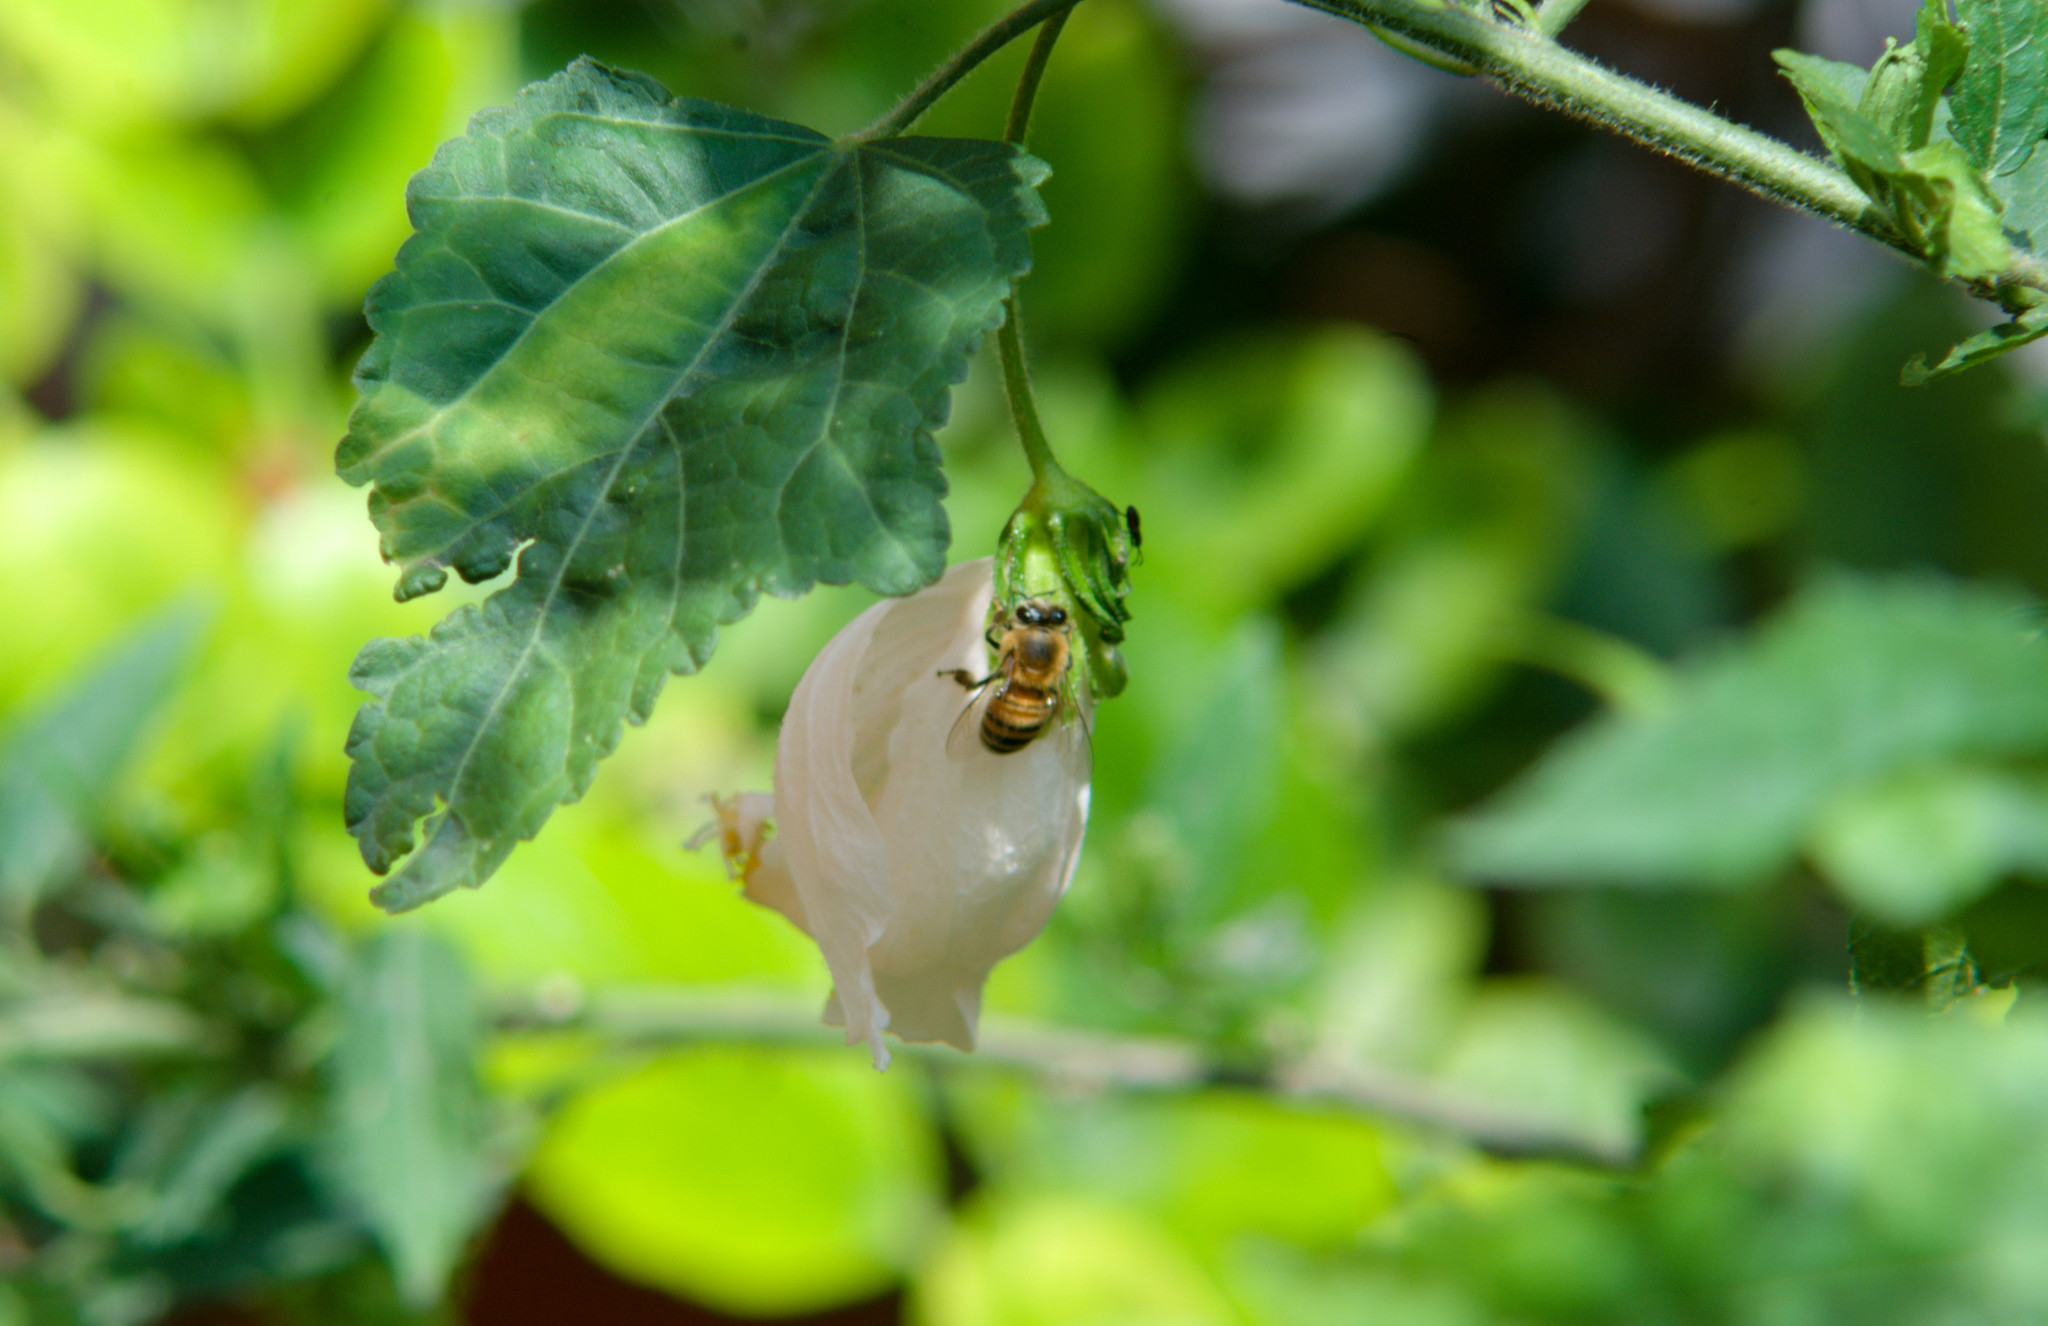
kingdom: Animalia
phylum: Arthropoda
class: Insecta
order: Hymenoptera
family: Apidae
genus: Apis
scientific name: Apis mellifera
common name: Honey bee
